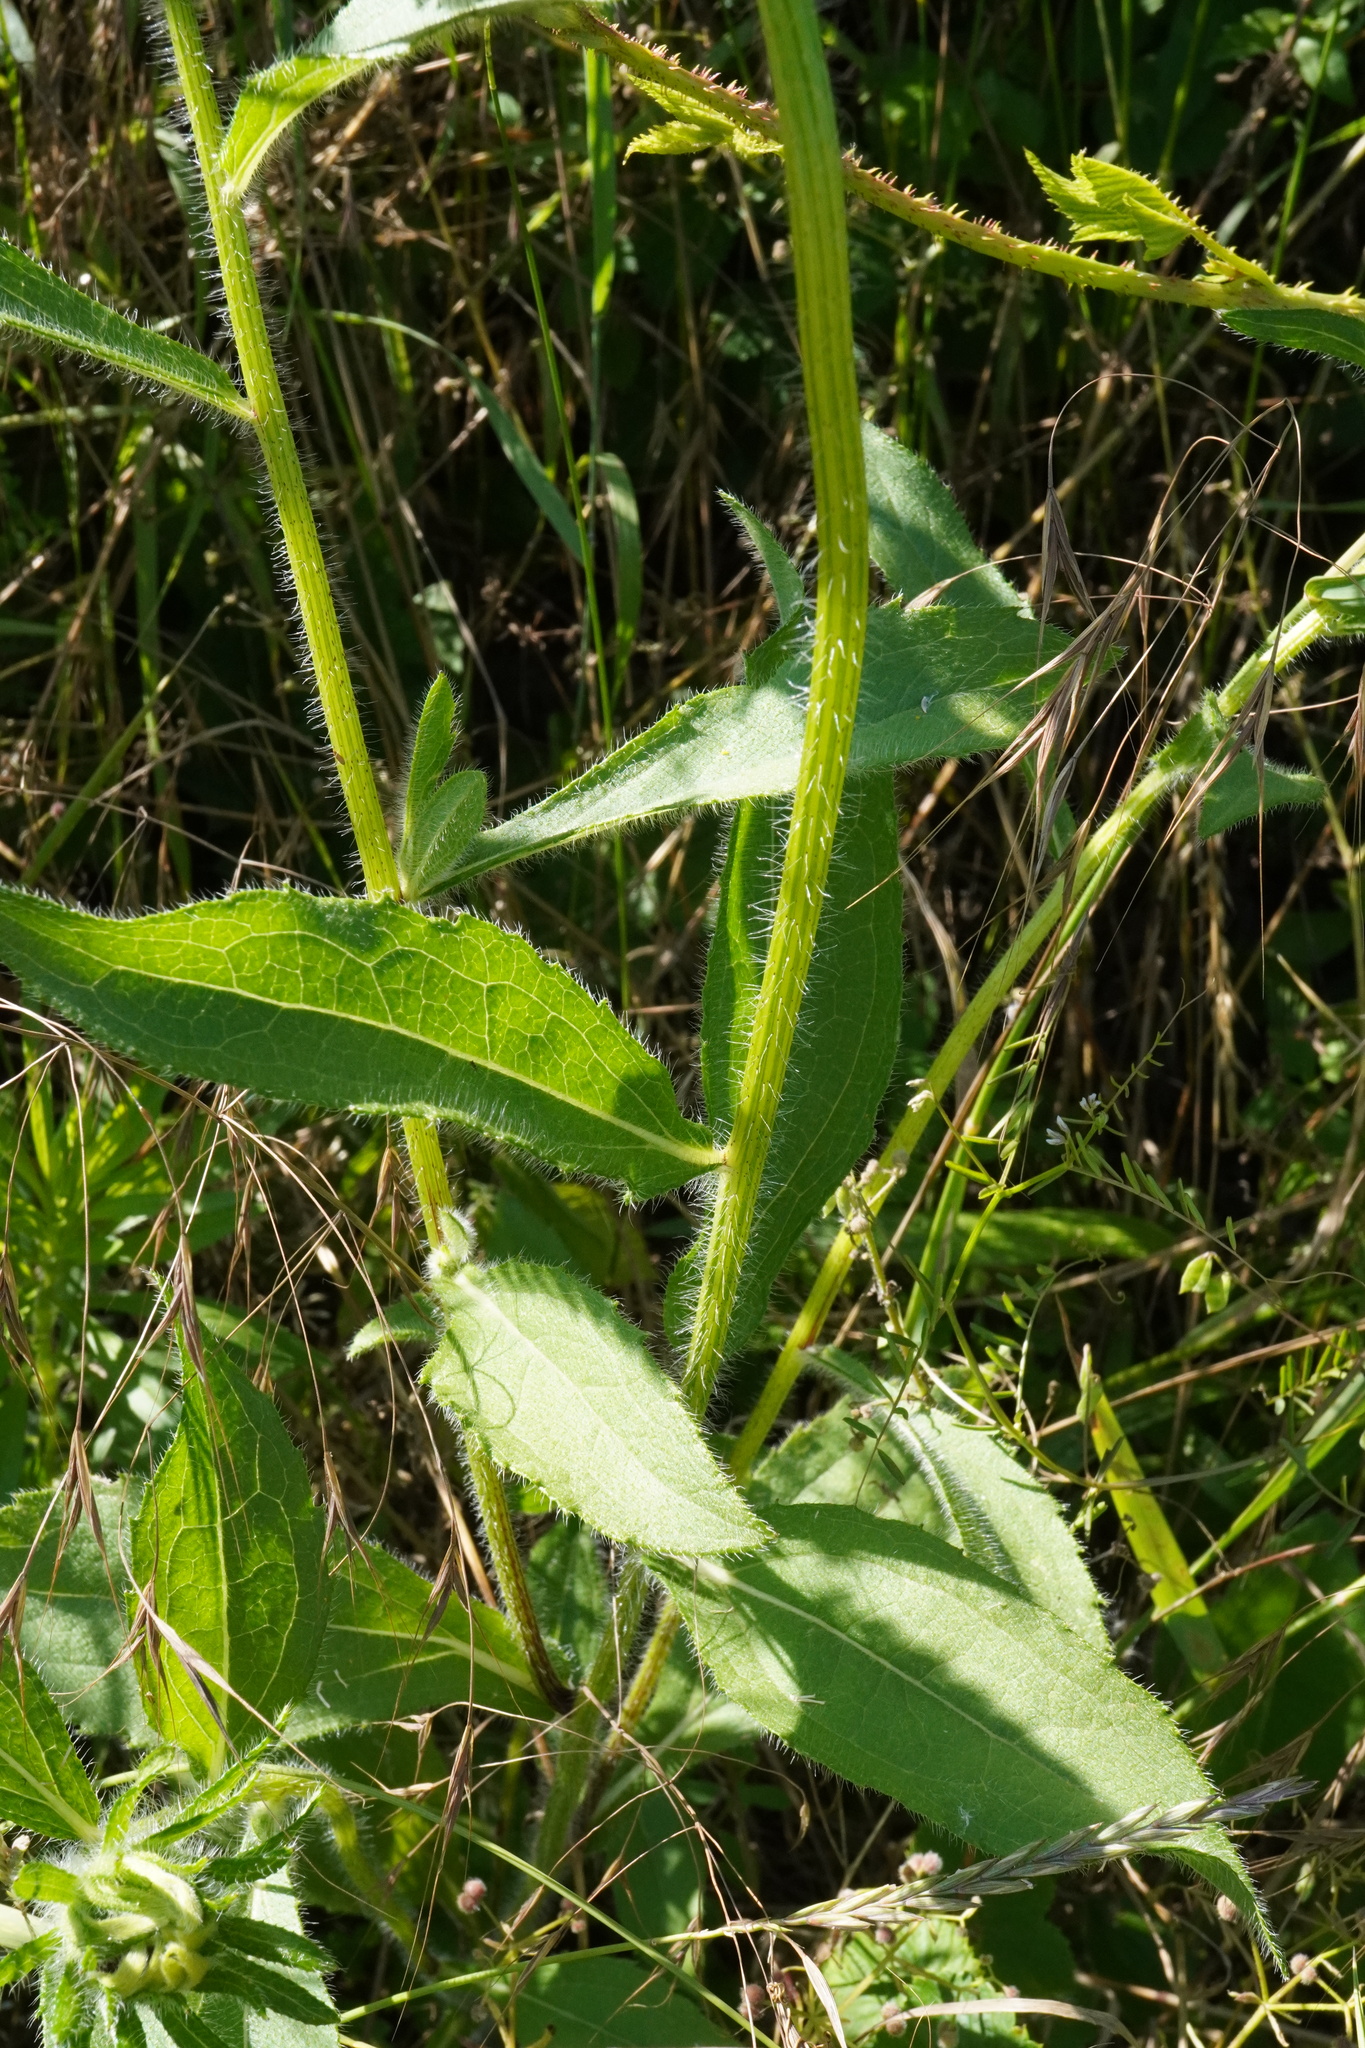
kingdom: Plantae
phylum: Tracheophyta
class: Magnoliopsida
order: Asterales
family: Asteraceae
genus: Rudbeckia
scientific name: Rudbeckia hirta
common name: Black-eyed-susan
